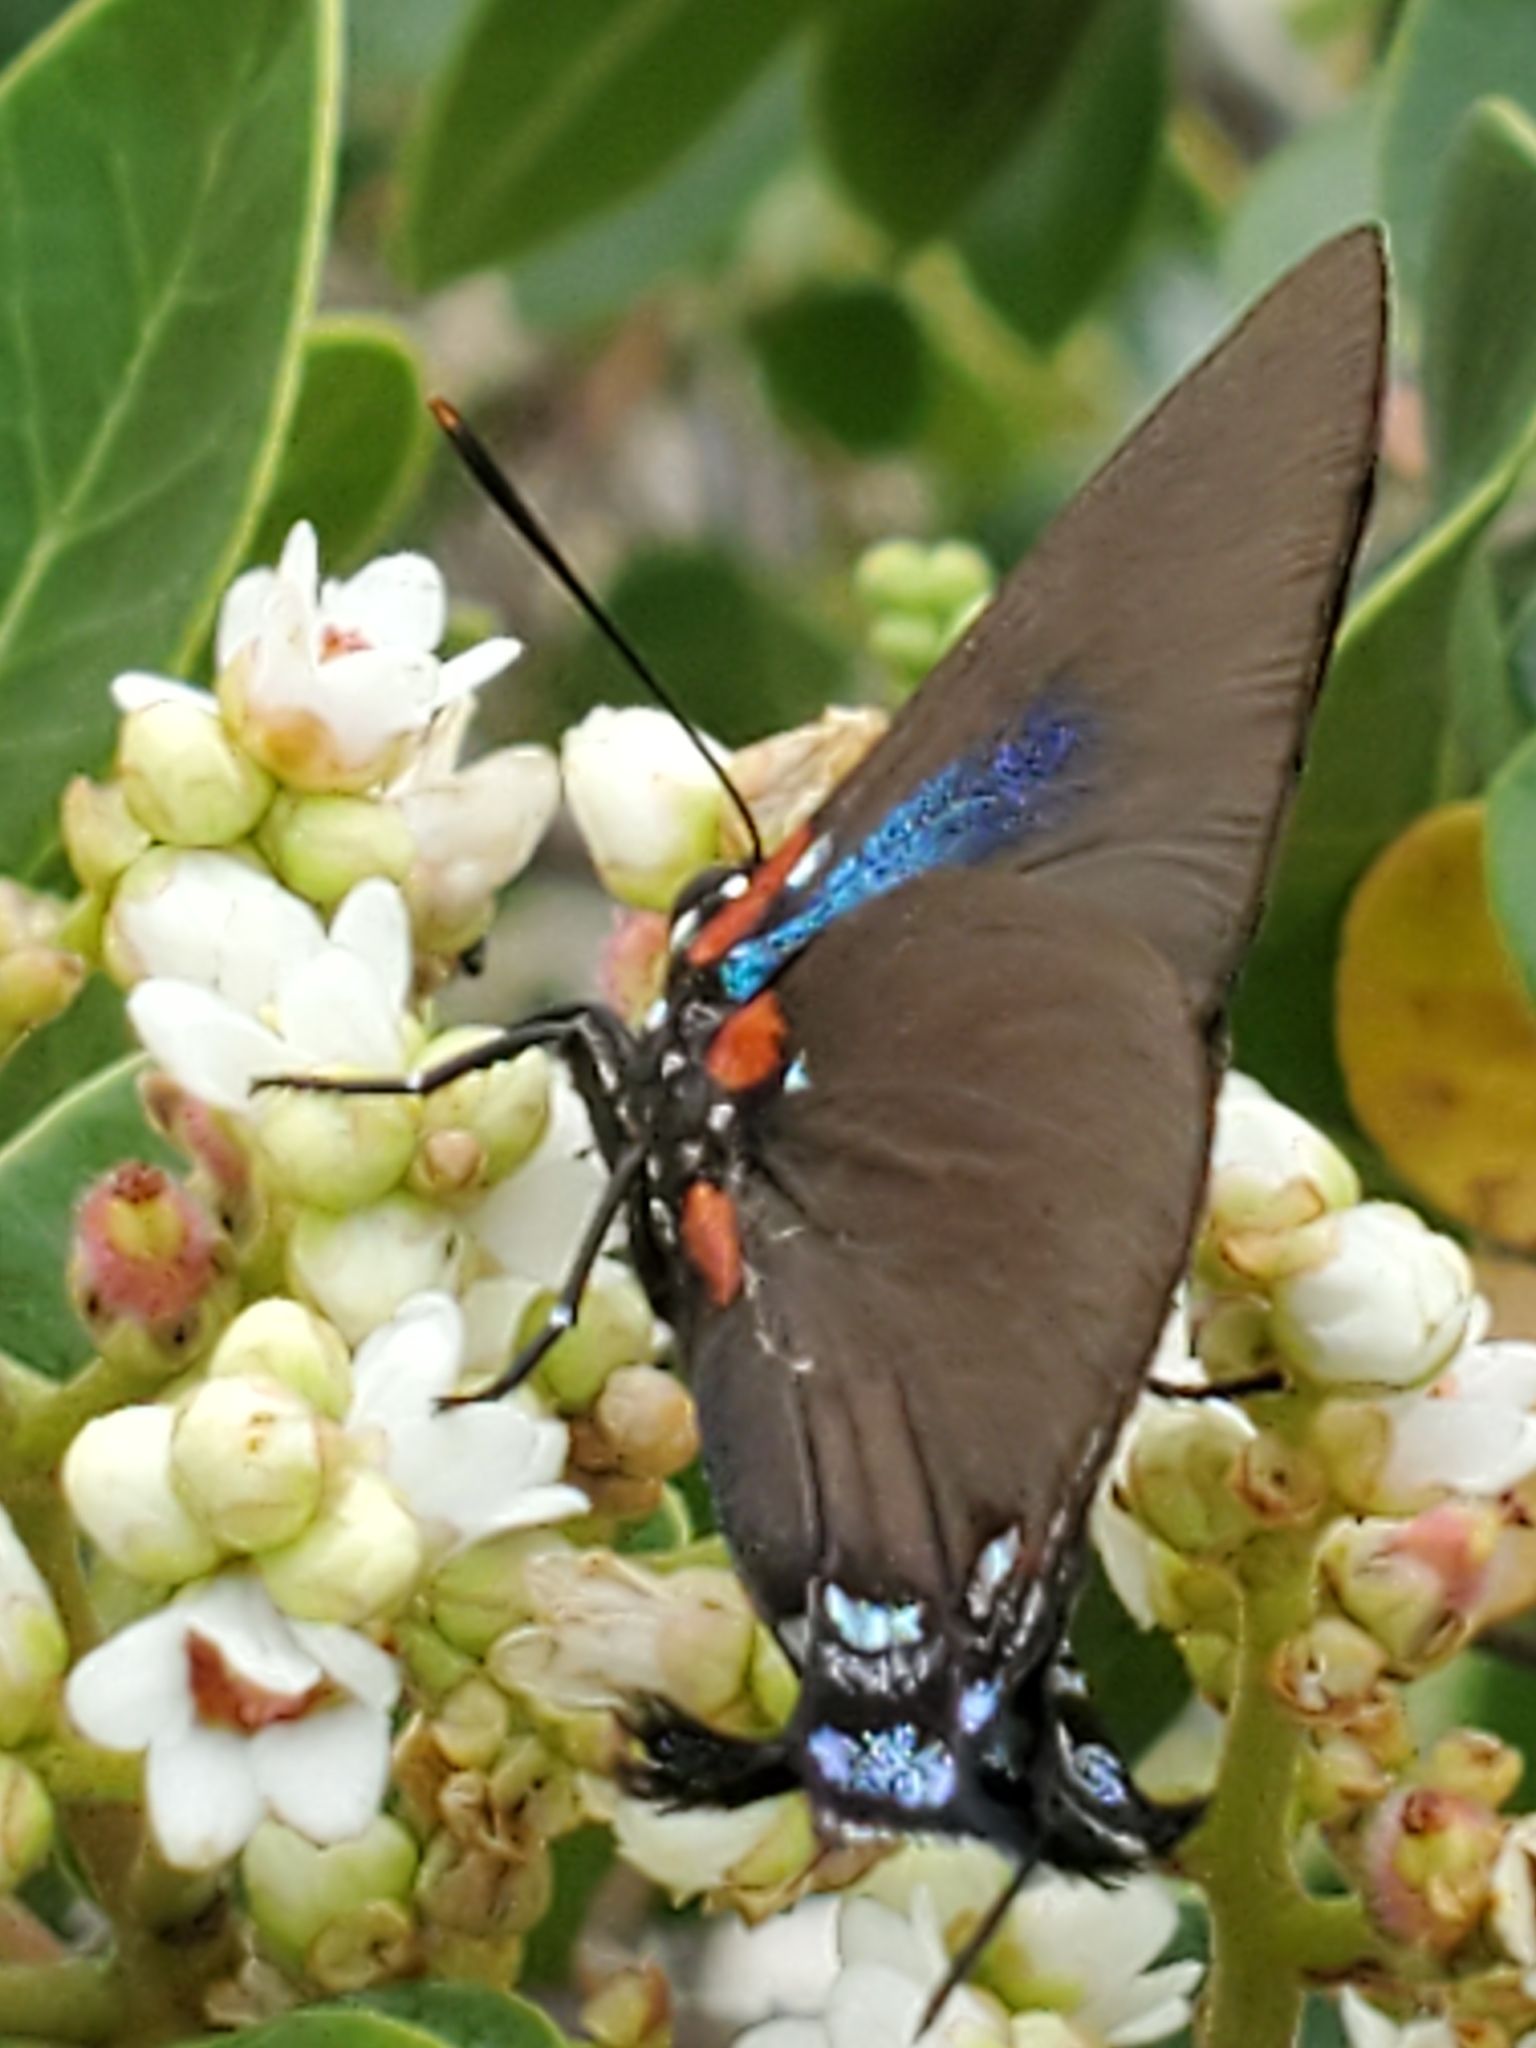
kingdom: Animalia
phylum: Arthropoda
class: Insecta
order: Lepidoptera
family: Lycaenidae
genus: Atlides
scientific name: Atlides halesus
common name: Great purple hairstreak
